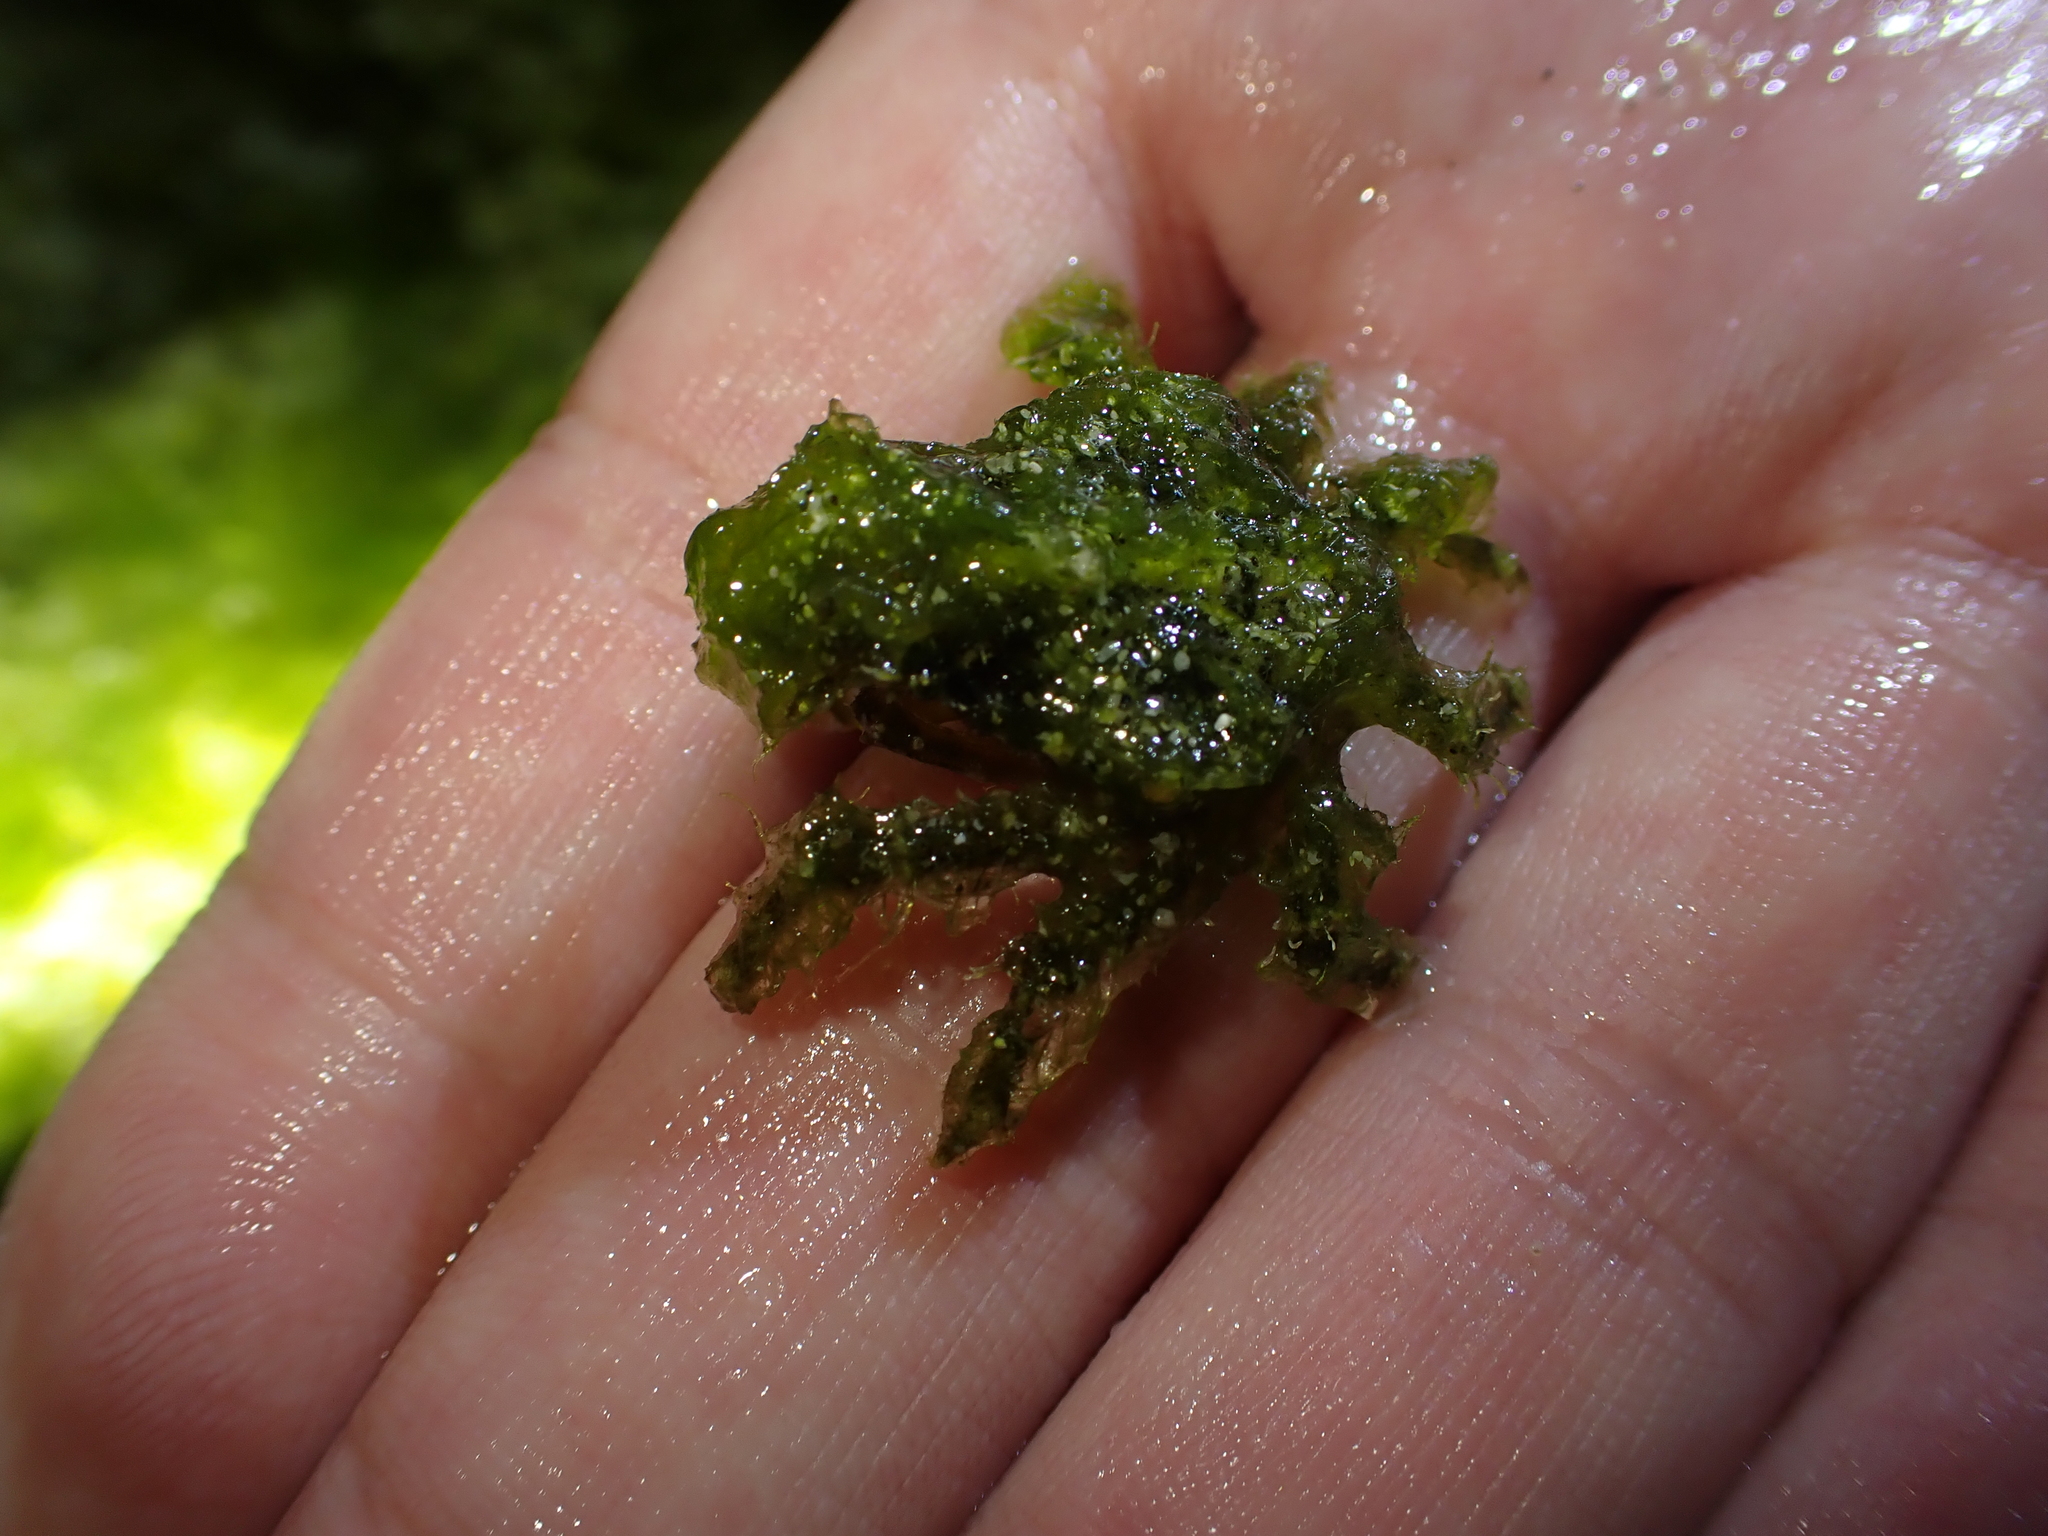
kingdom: Animalia
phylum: Arthropoda
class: Malacostraca
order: Decapoda
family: Majidae
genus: Micippa
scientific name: Micippa platipes
